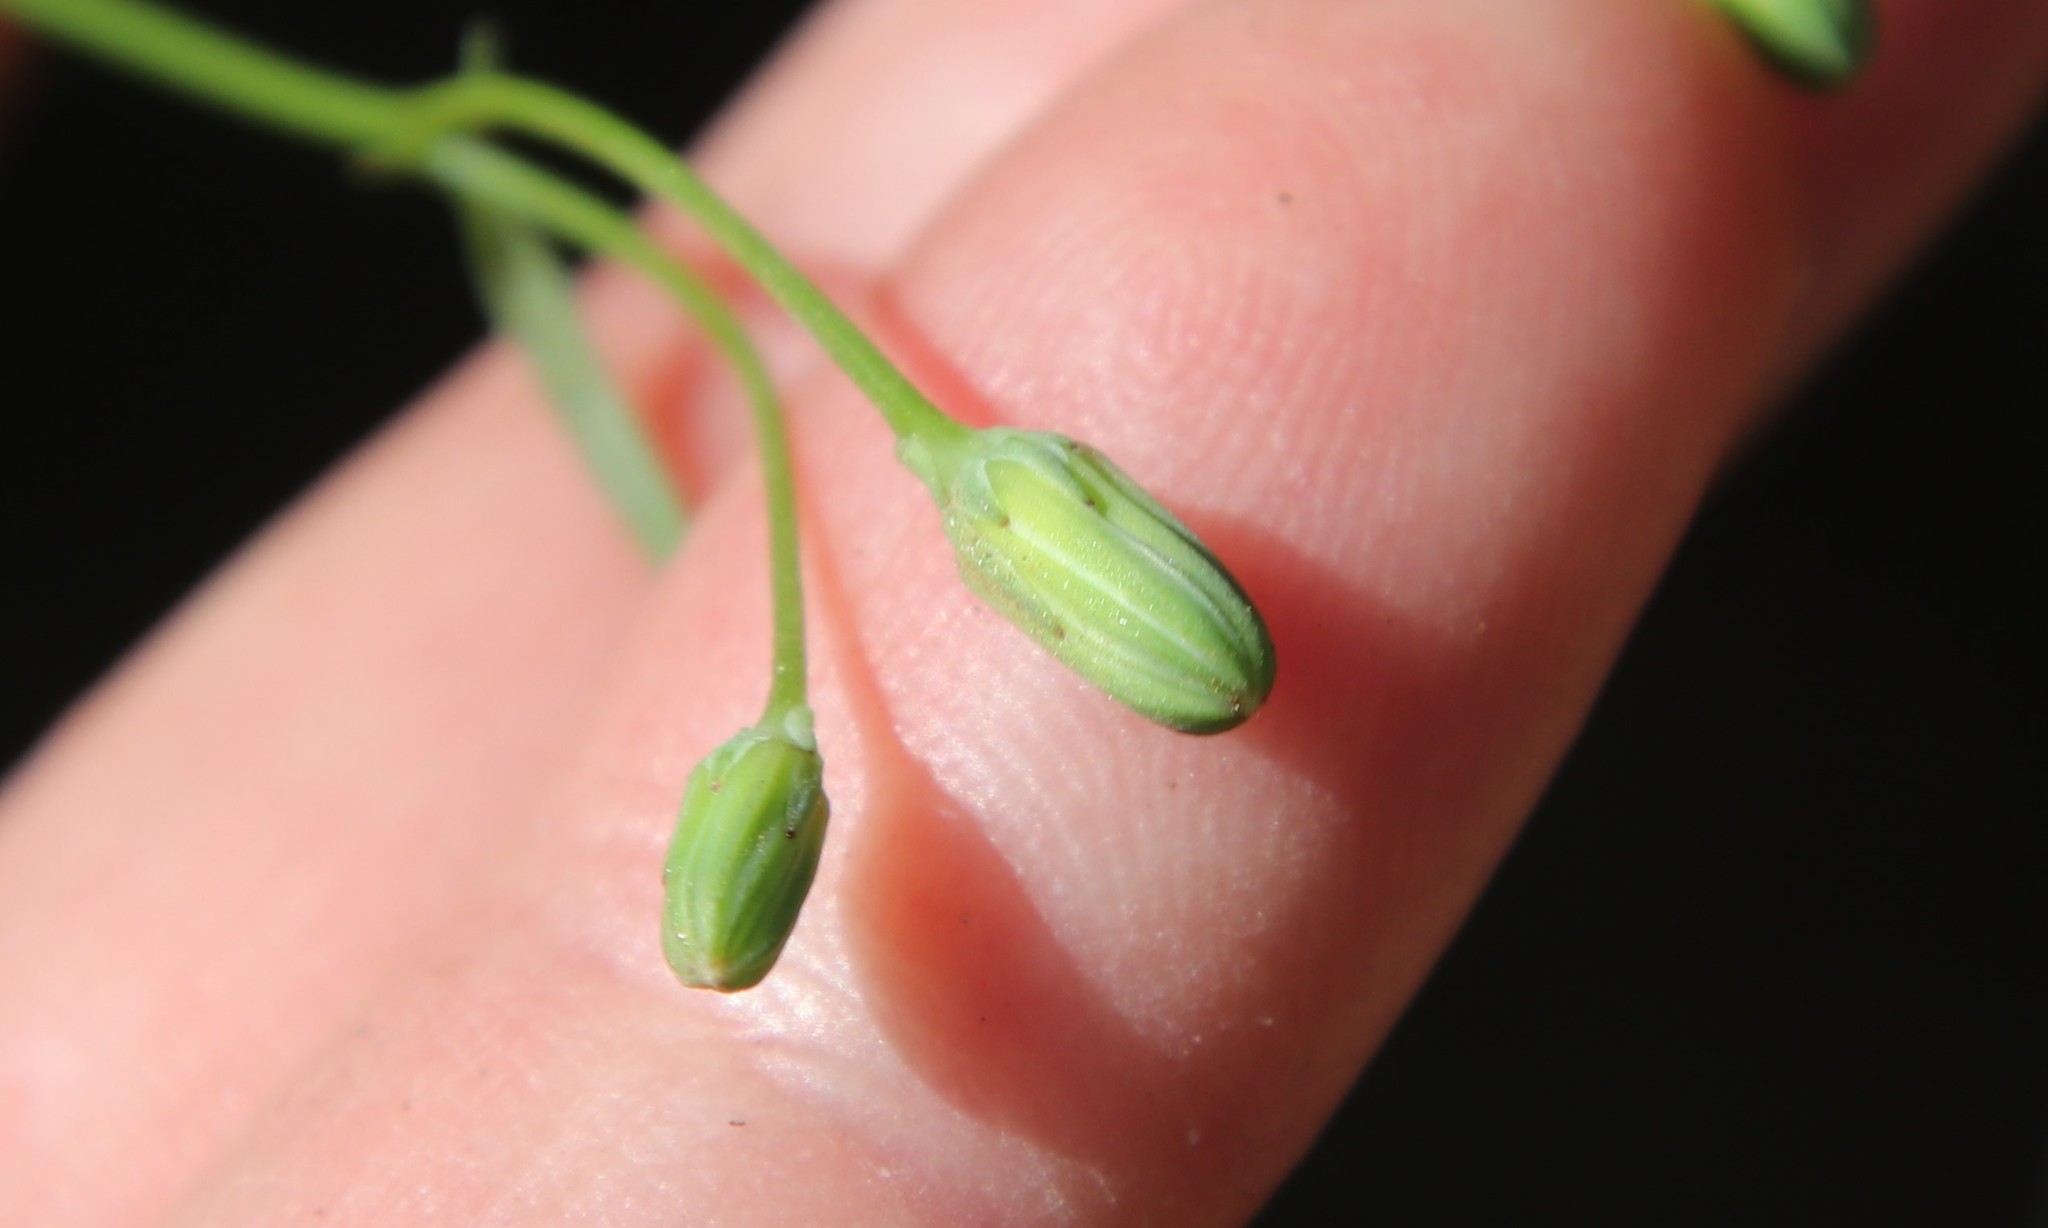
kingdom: Plantae
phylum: Tracheophyta
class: Magnoliopsida
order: Asterales
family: Asteraceae
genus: Malacothrix
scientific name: Malacothrix clevelandii
